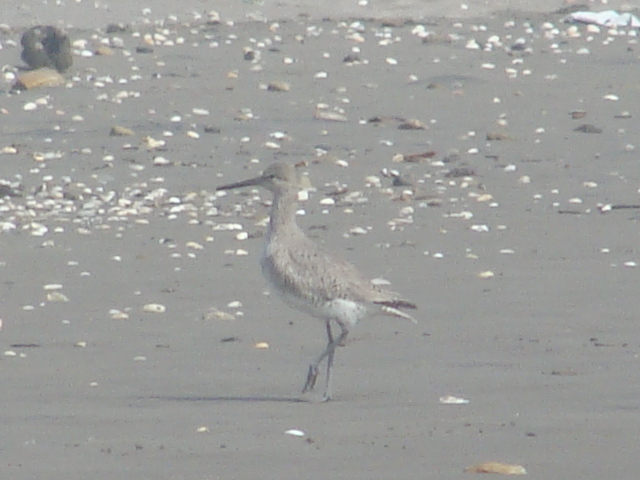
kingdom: Animalia
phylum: Chordata
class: Aves
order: Charadriiformes
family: Scolopacidae
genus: Tringa
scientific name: Tringa semipalmata
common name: Willet
